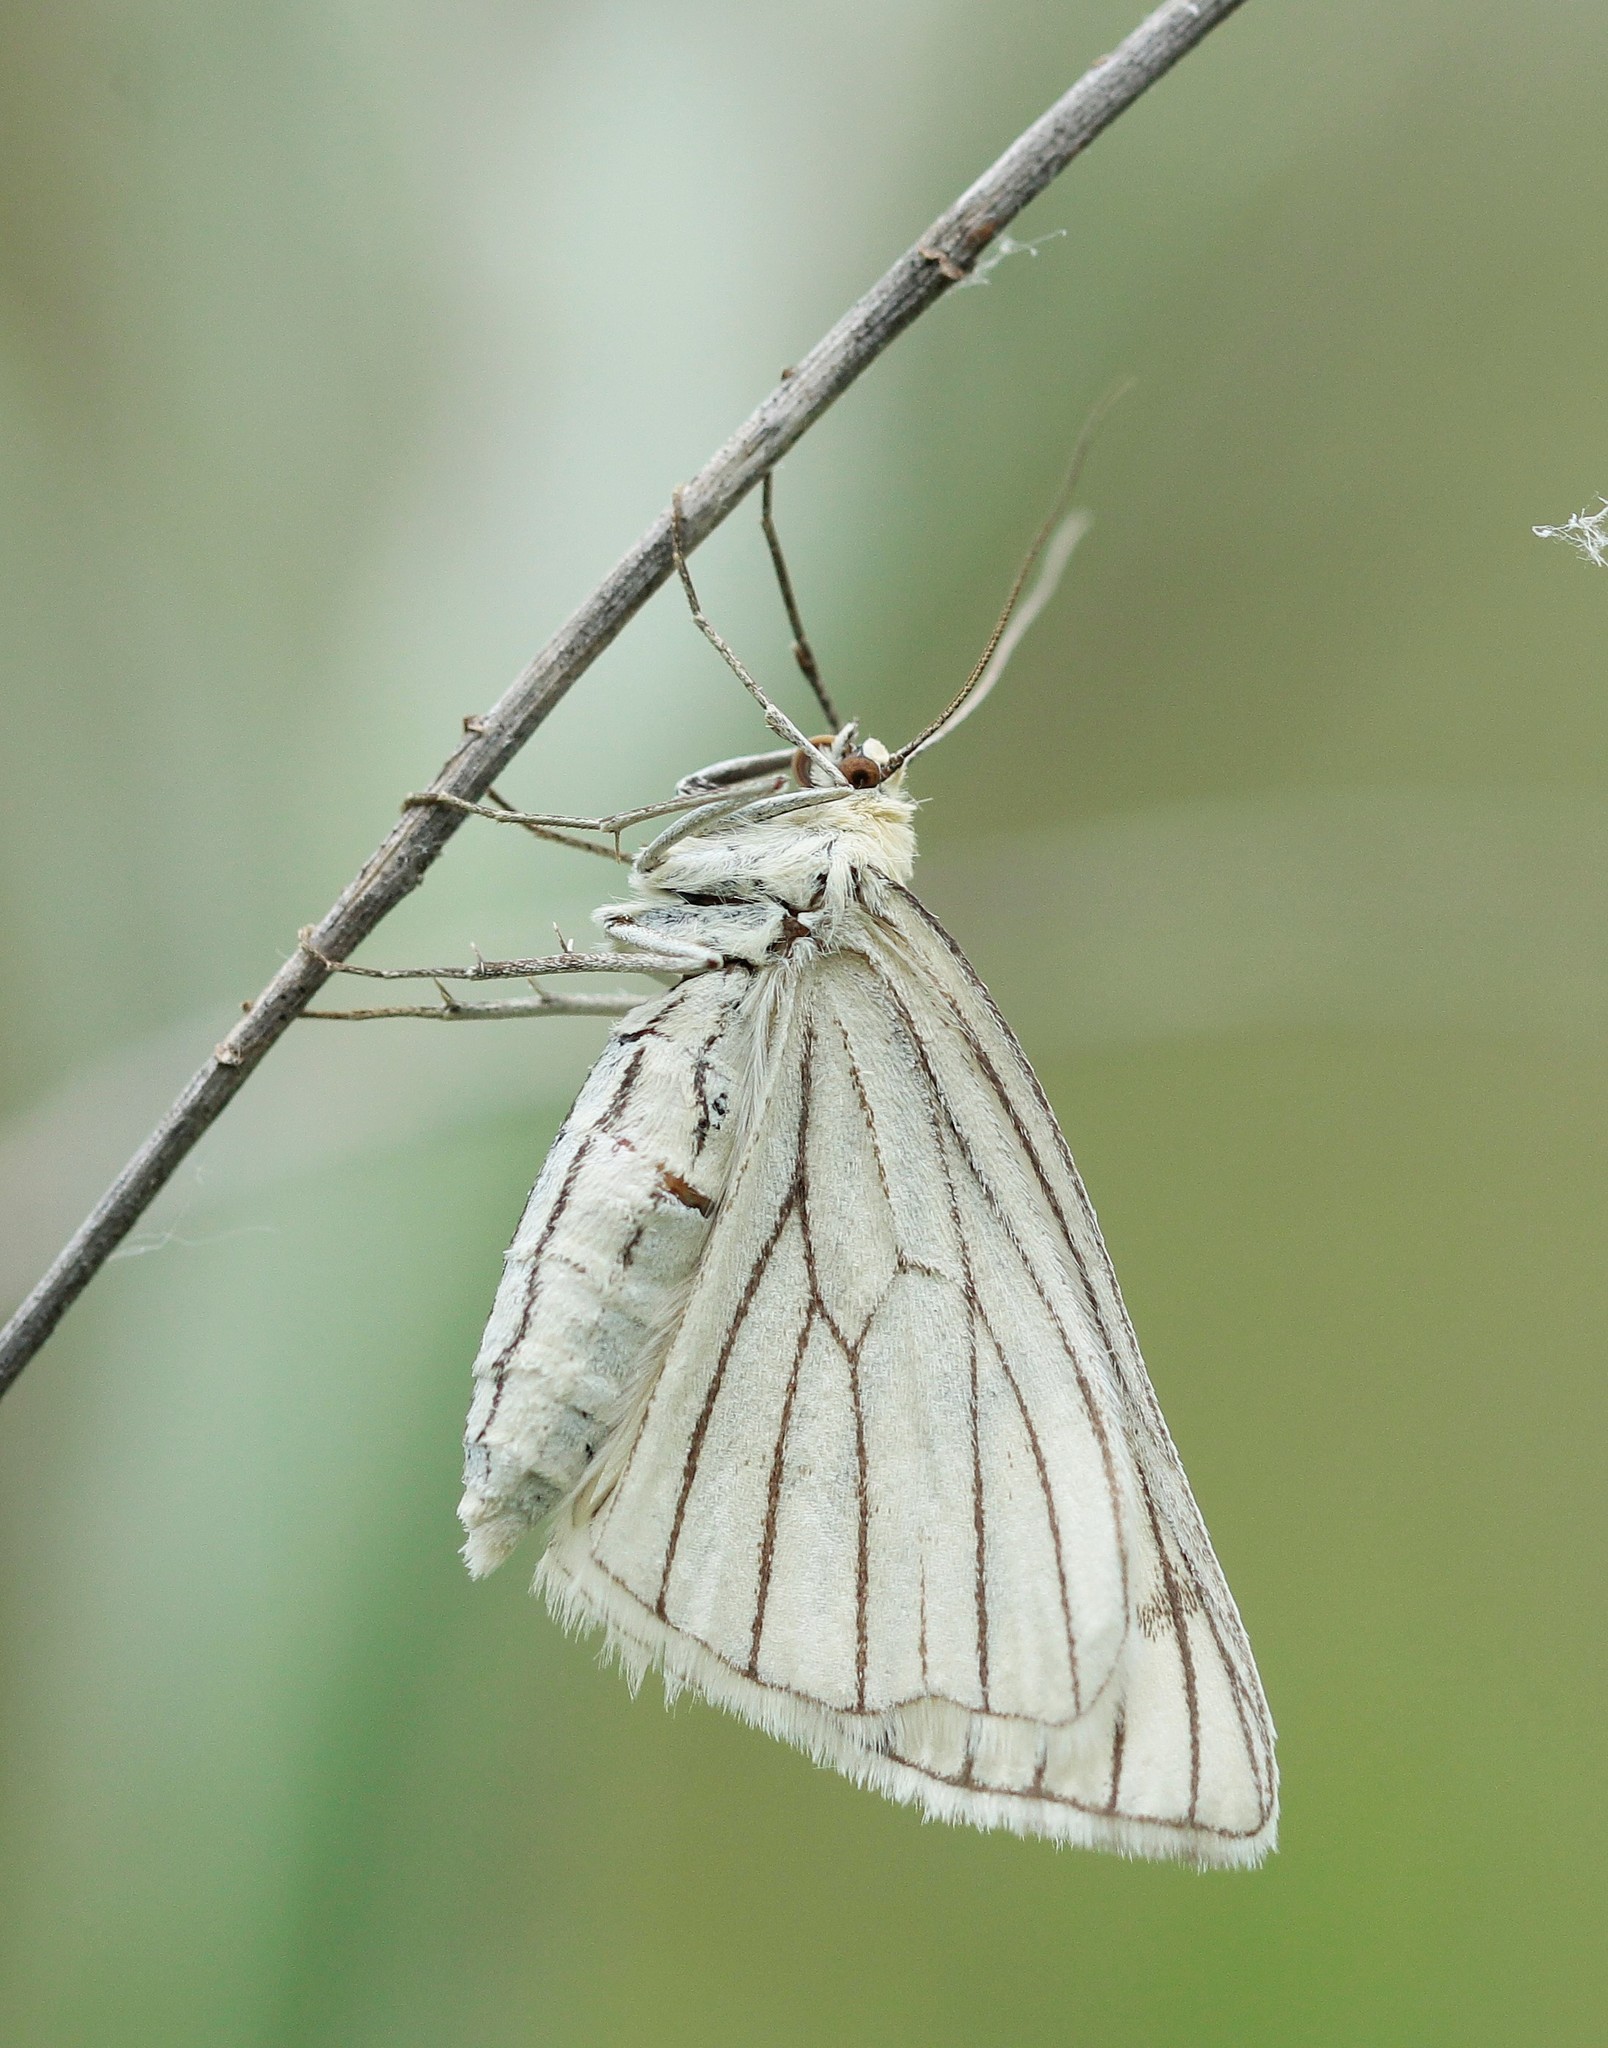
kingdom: Animalia
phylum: Arthropoda
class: Insecta
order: Lepidoptera
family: Geometridae
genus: Siona
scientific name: Siona lineata
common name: Black-veined moth
